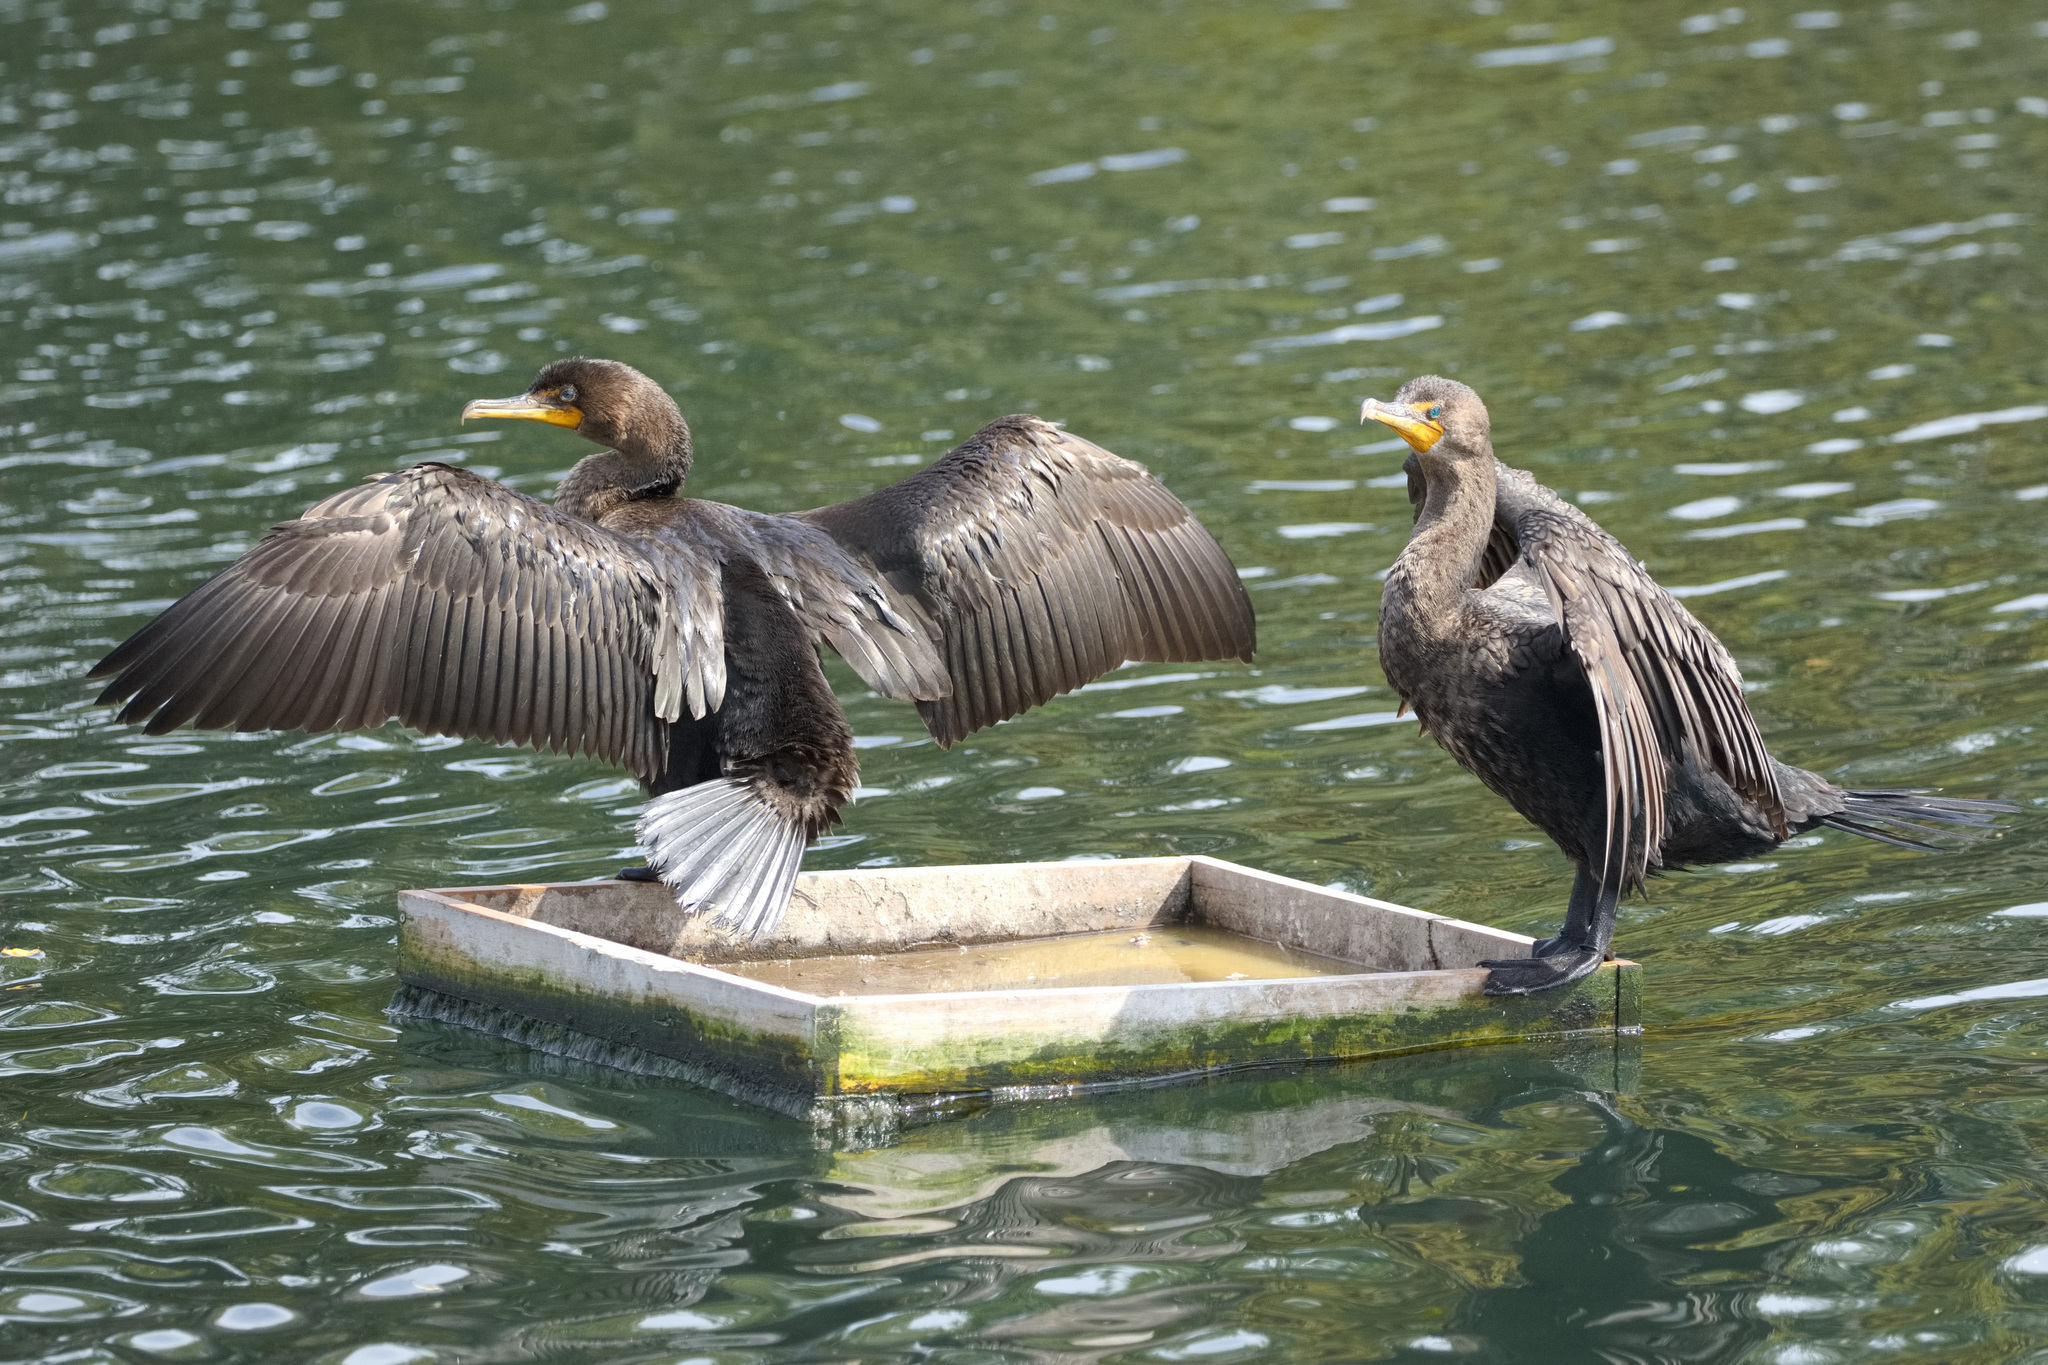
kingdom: Animalia
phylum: Chordata
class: Aves
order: Suliformes
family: Phalacrocoracidae
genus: Phalacrocorax
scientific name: Phalacrocorax auritus
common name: Double-crested cormorant
